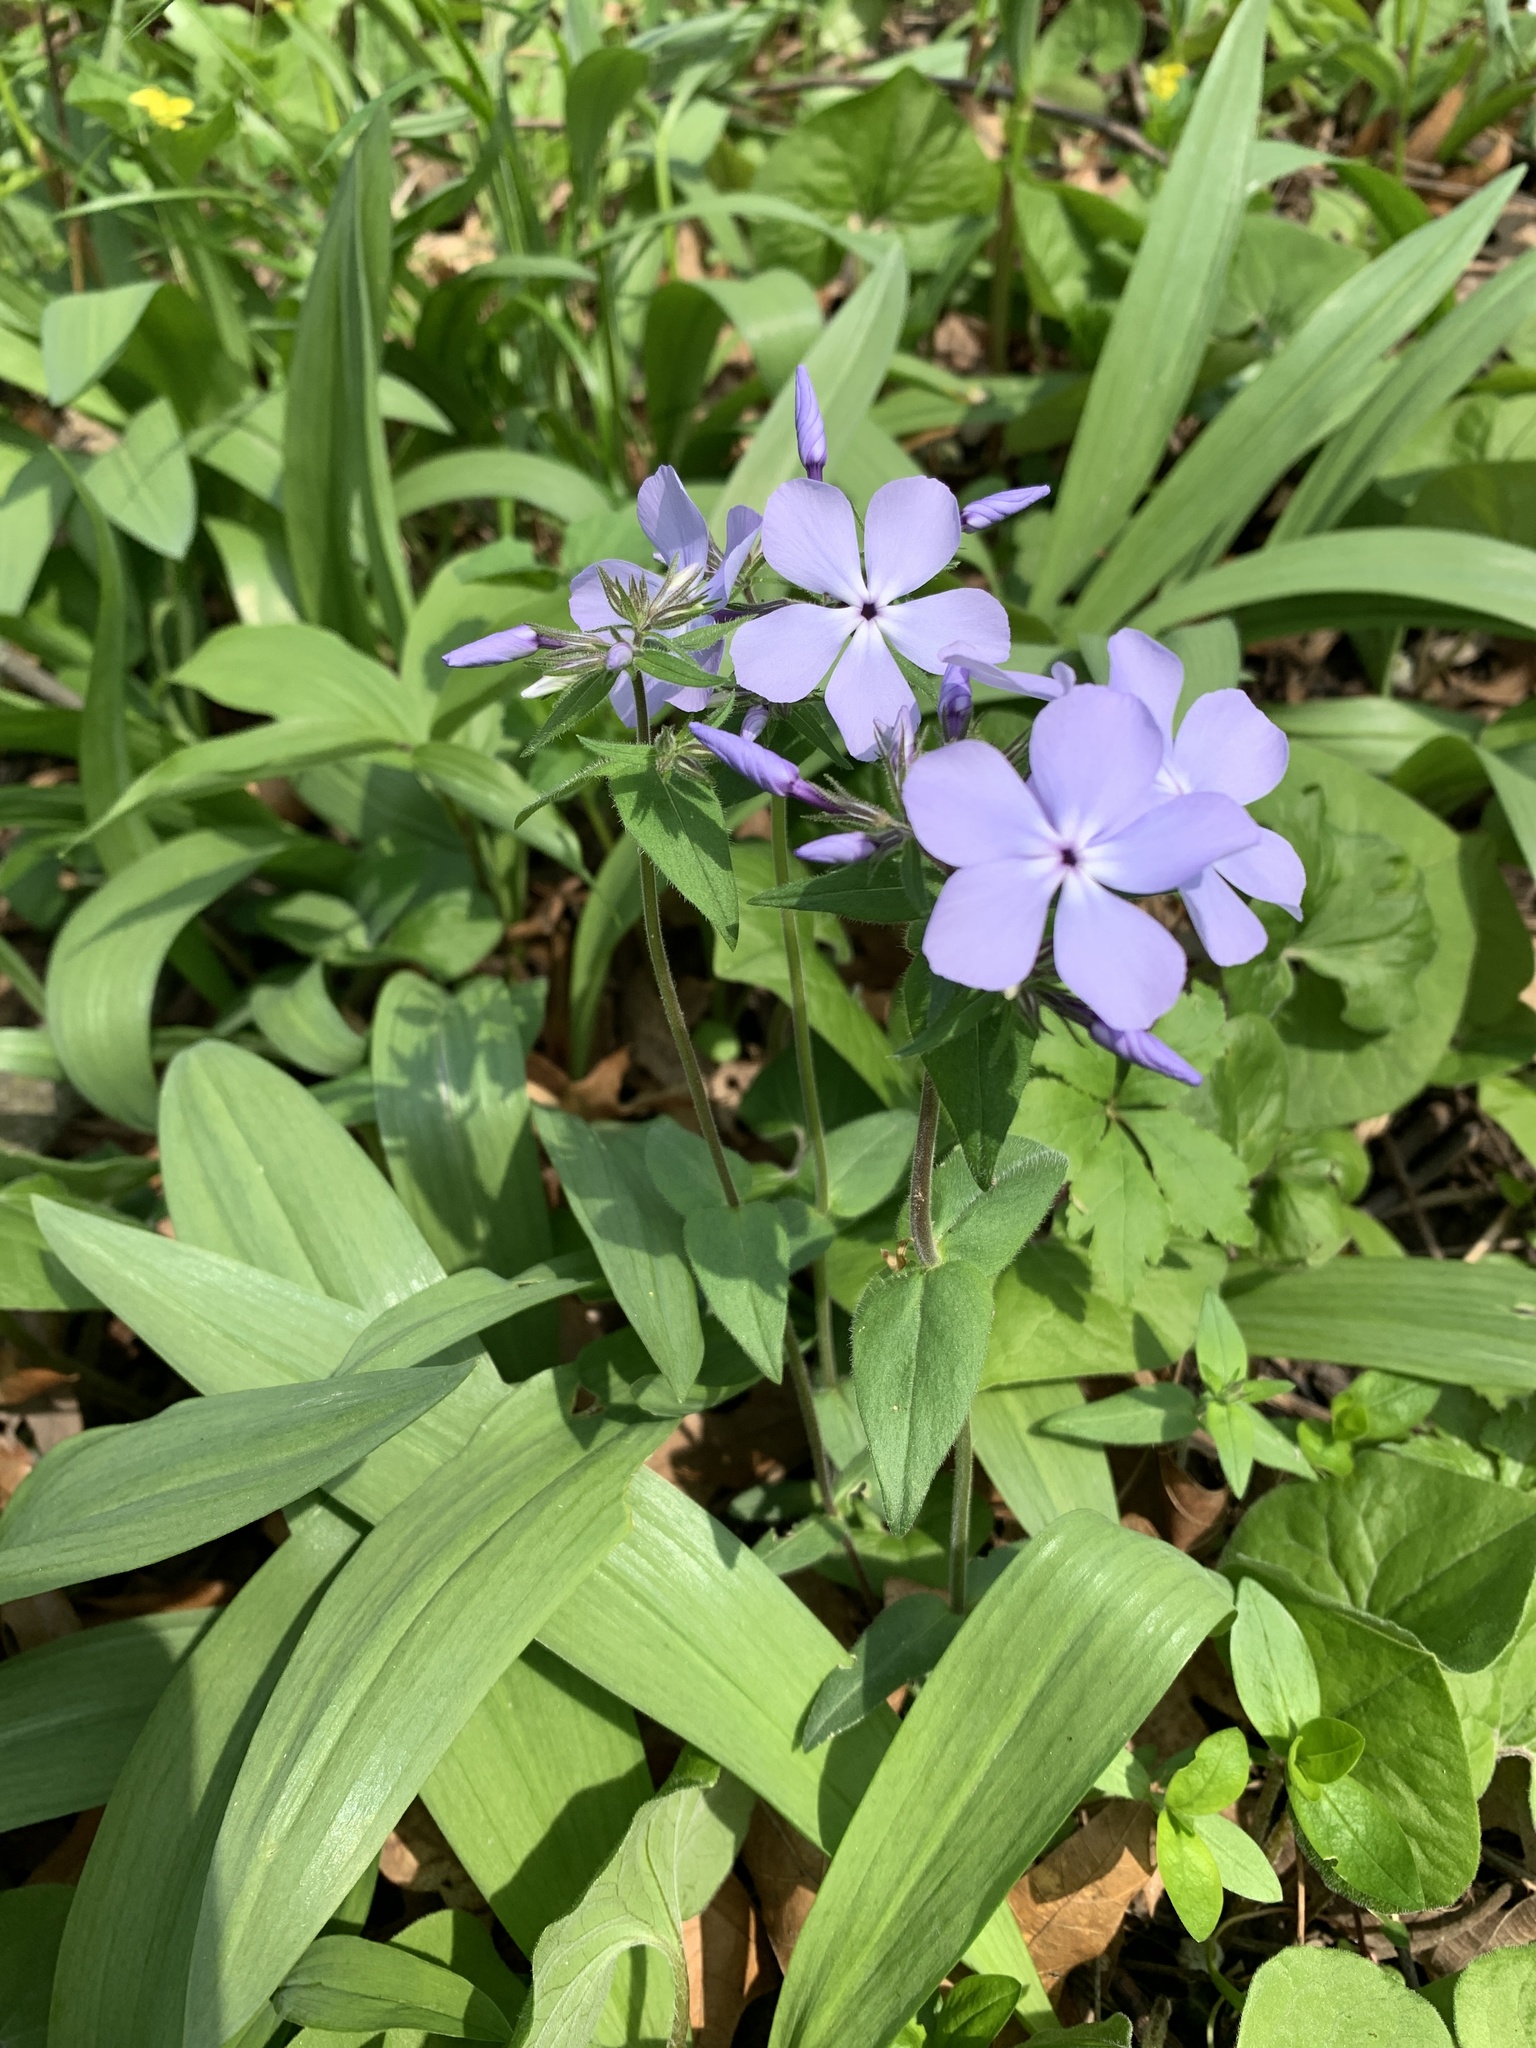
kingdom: Plantae
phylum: Tracheophyta
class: Magnoliopsida
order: Ericales
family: Polemoniaceae
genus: Phlox
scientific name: Phlox divaricata
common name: Blue phlox
